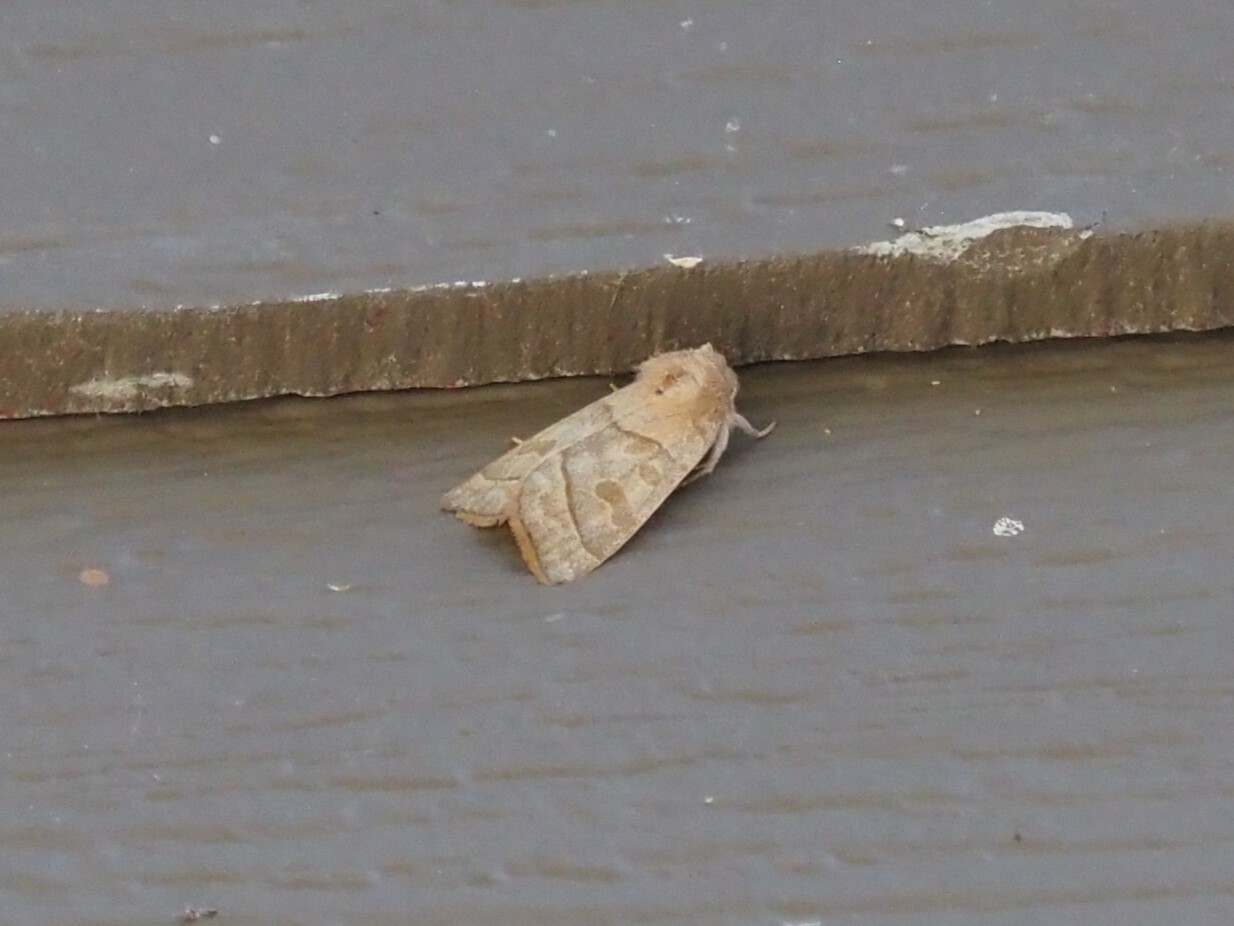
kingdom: Animalia
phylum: Arthropoda
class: Insecta
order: Lepidoptera
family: Noctuidae
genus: Ipimorpha
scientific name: Ipimorpha nanaimo
